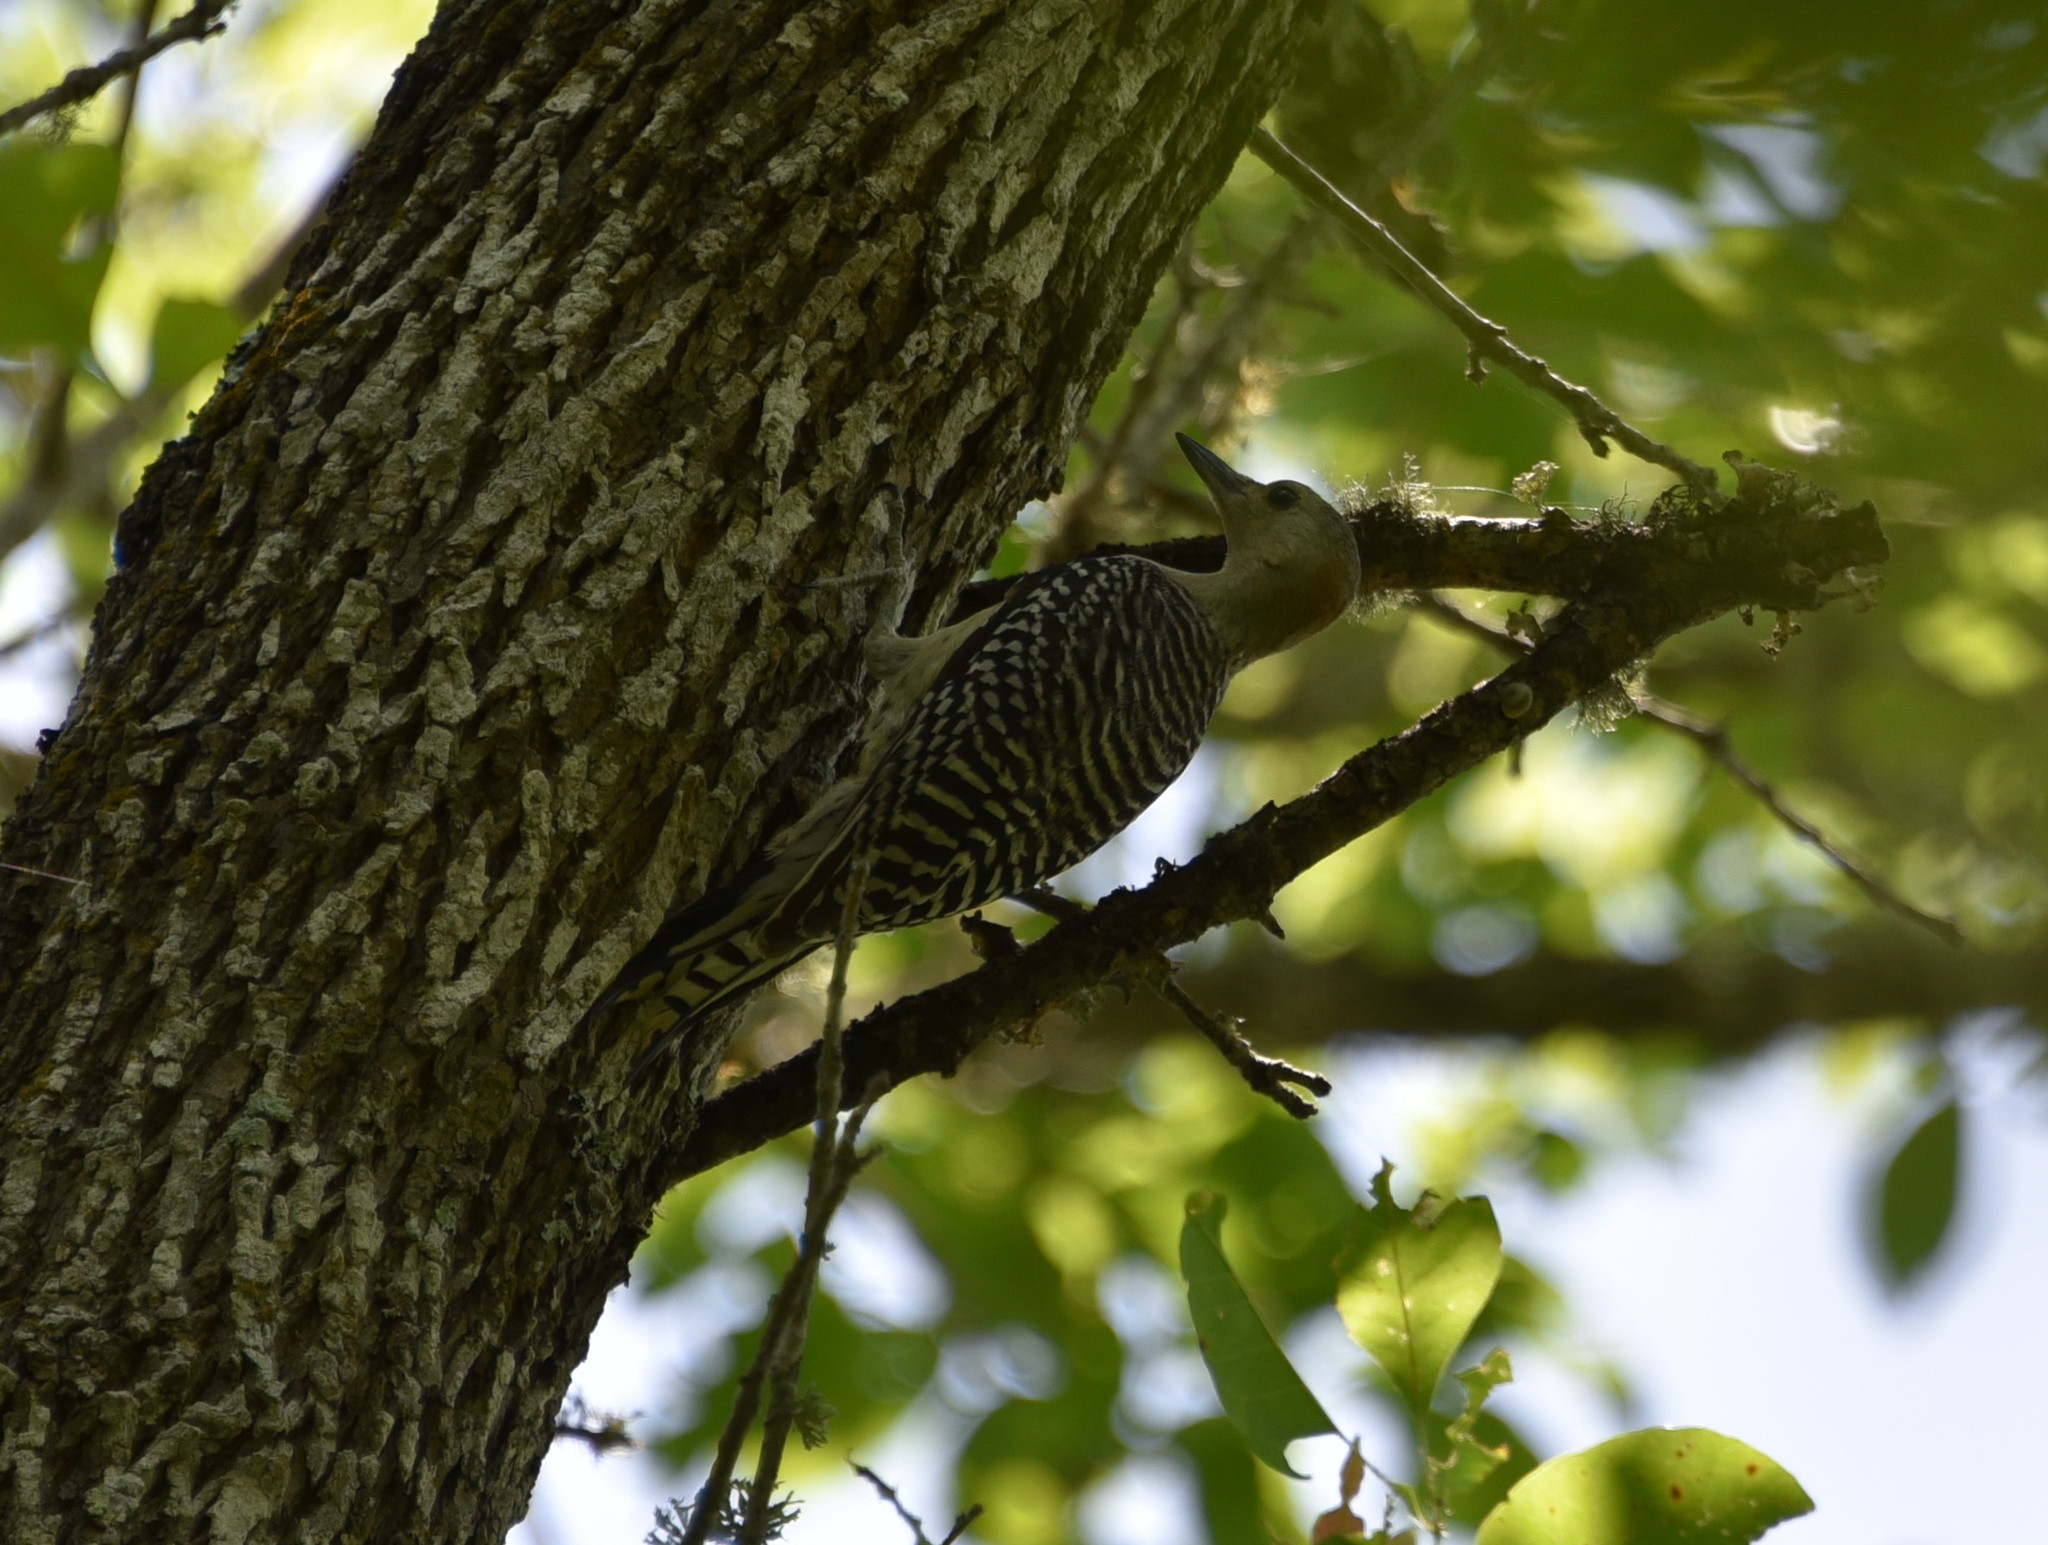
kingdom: Animalia
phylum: Chordata
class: Aves
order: Piciformes
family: Picidae
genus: Melanerpes
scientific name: Melanerpes carolinus
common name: Red-bellied woodpecker
